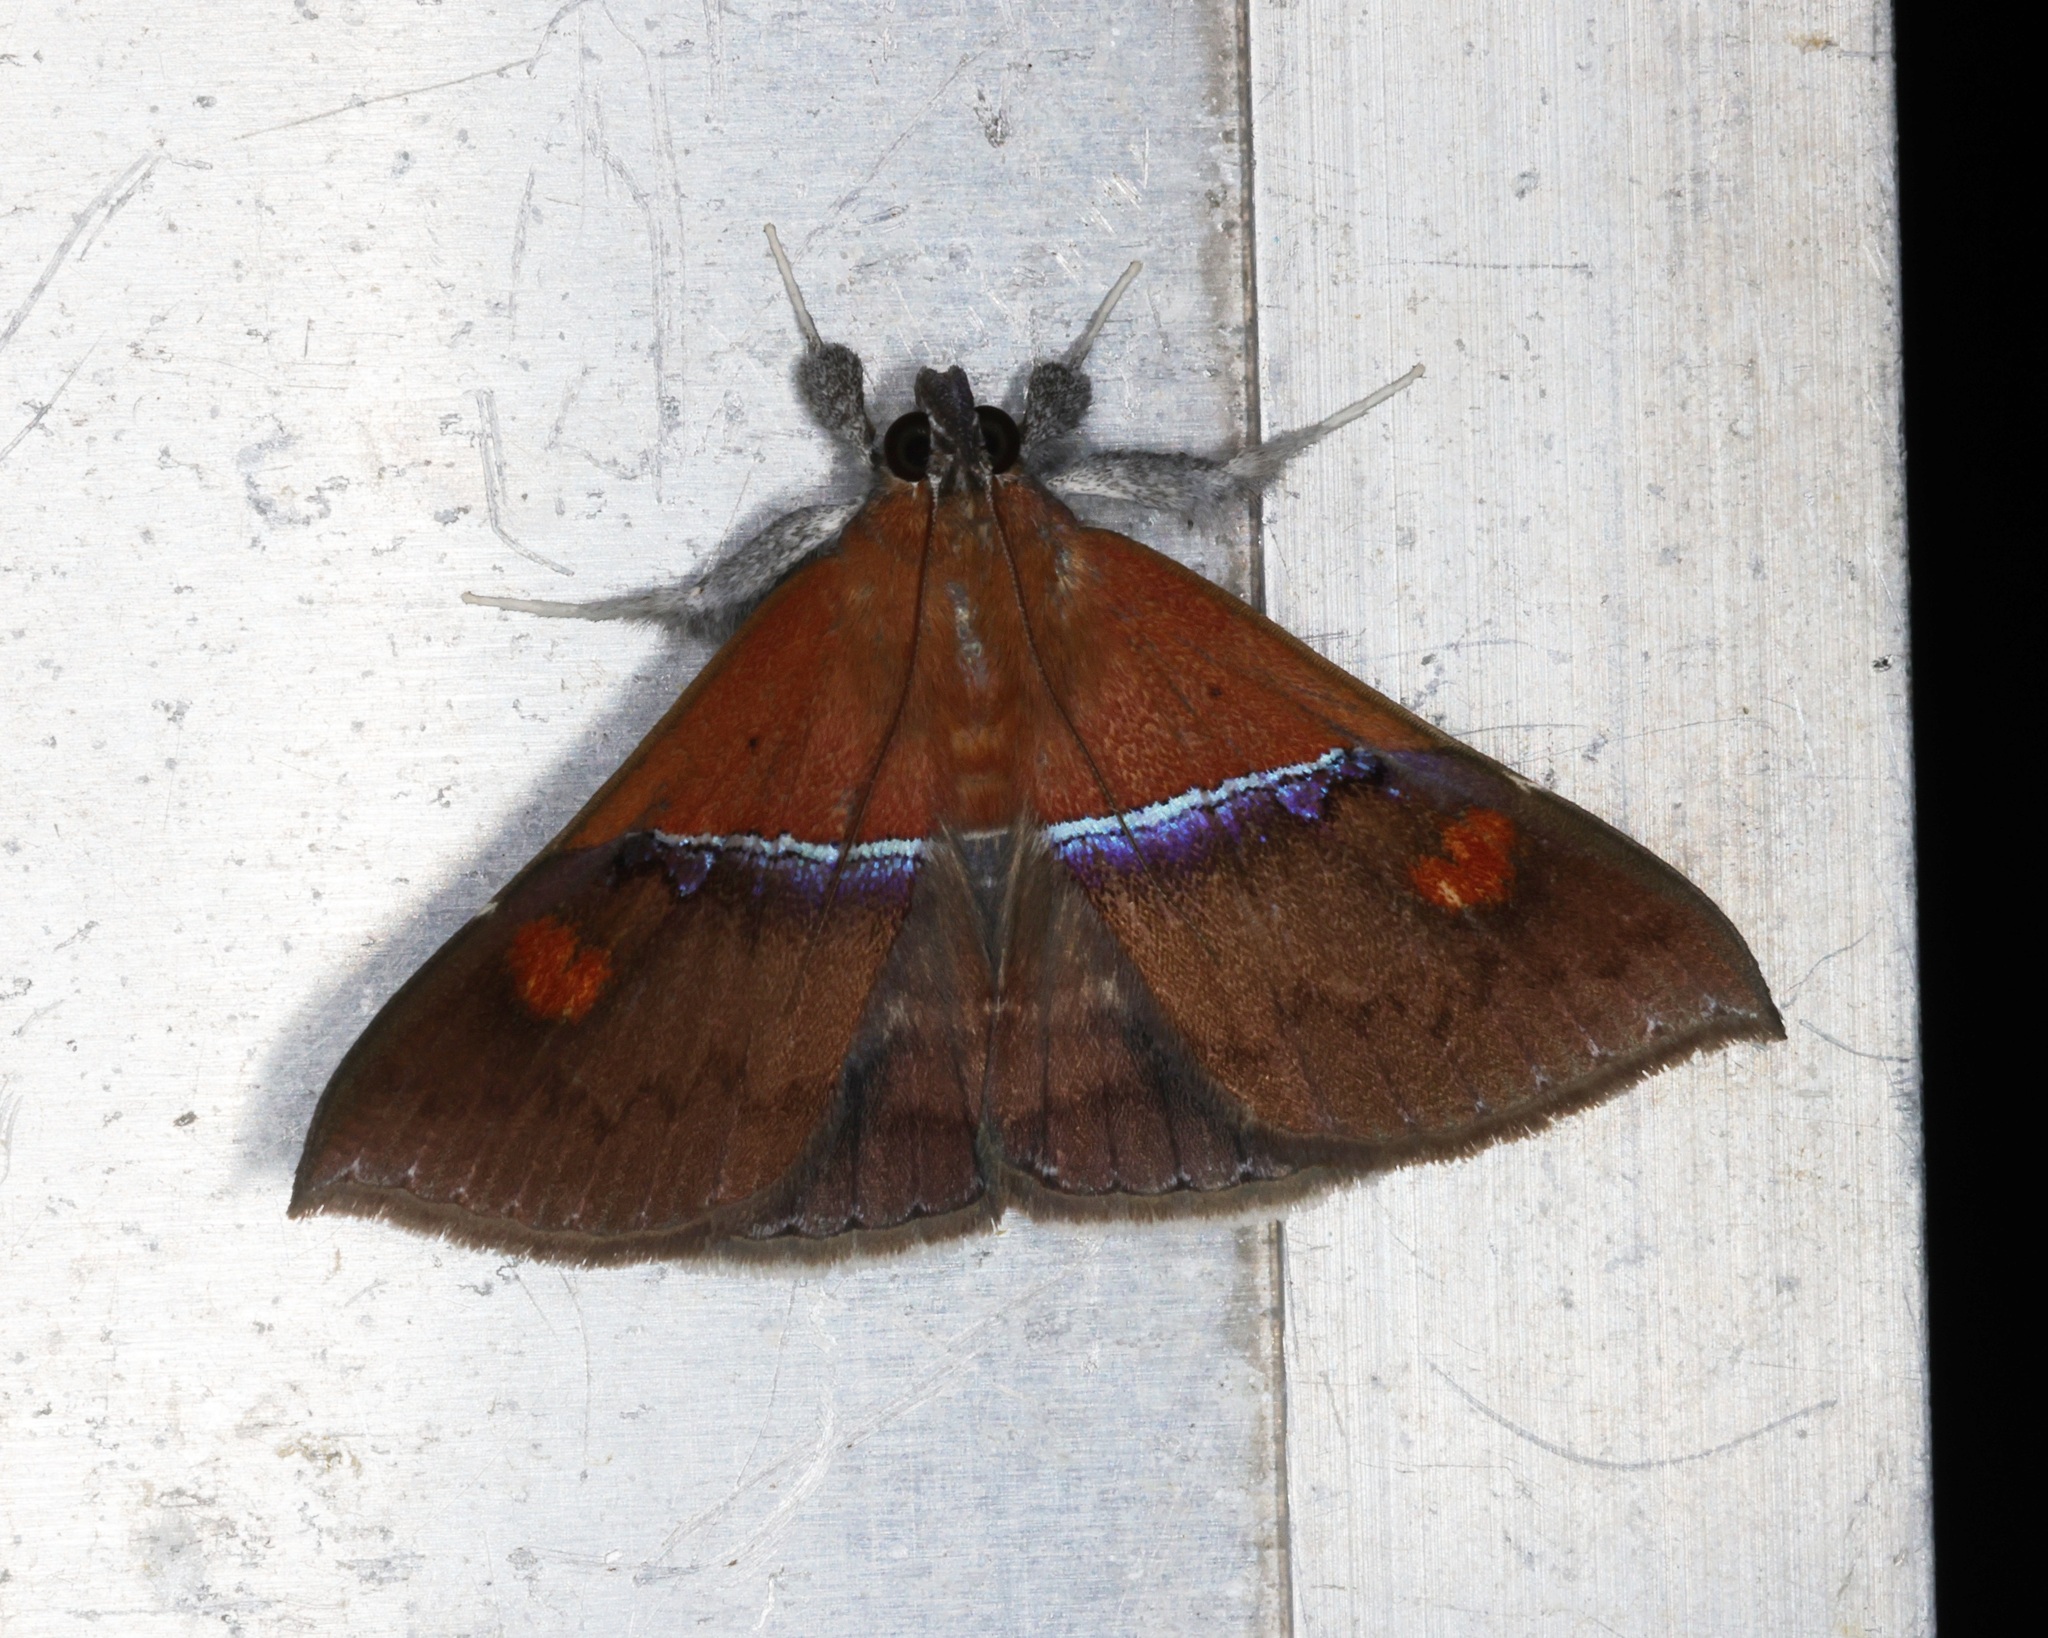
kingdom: Animalia
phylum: Arthropoda
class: Insecta
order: Lepidoptera
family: Erebidae
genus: Sympis
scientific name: Sympis rufibasis
